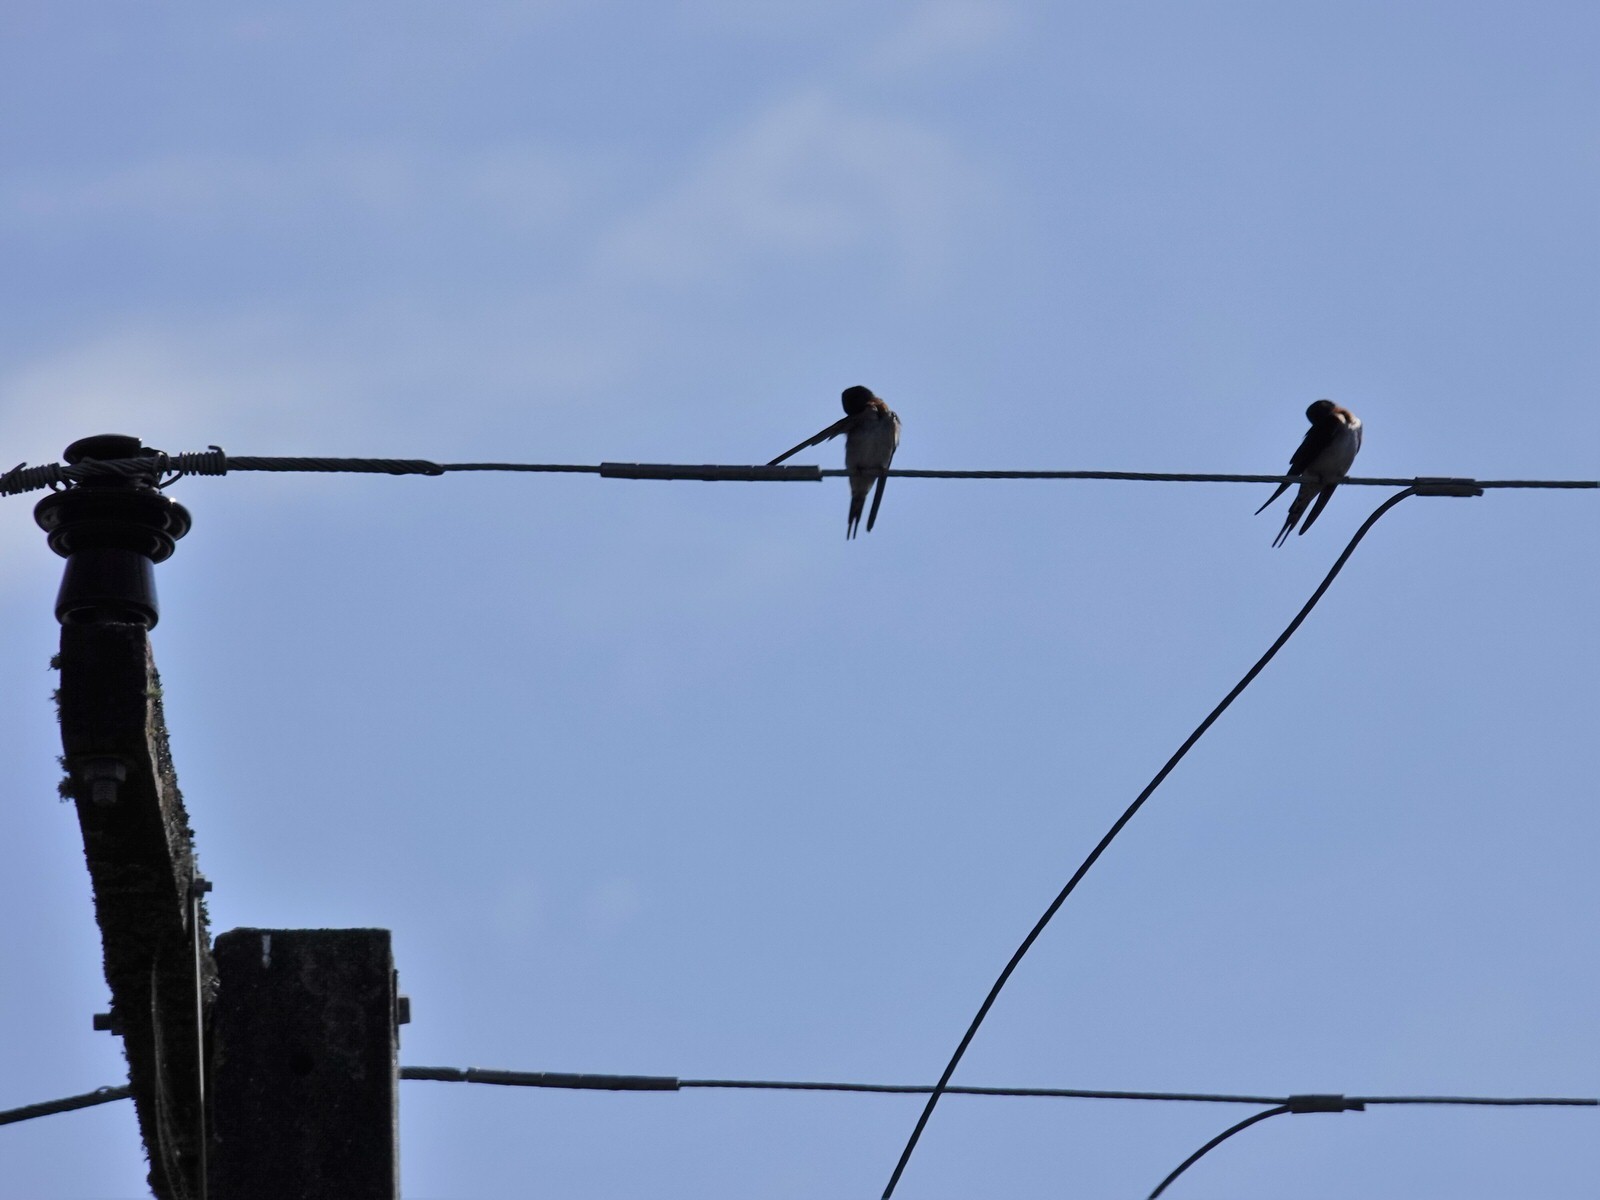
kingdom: Animalia
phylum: Chordata
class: Aves
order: Passeriformes
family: Hirundinidae
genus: Hirundo
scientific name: Hirundo neoxena
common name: Welcome swallow
